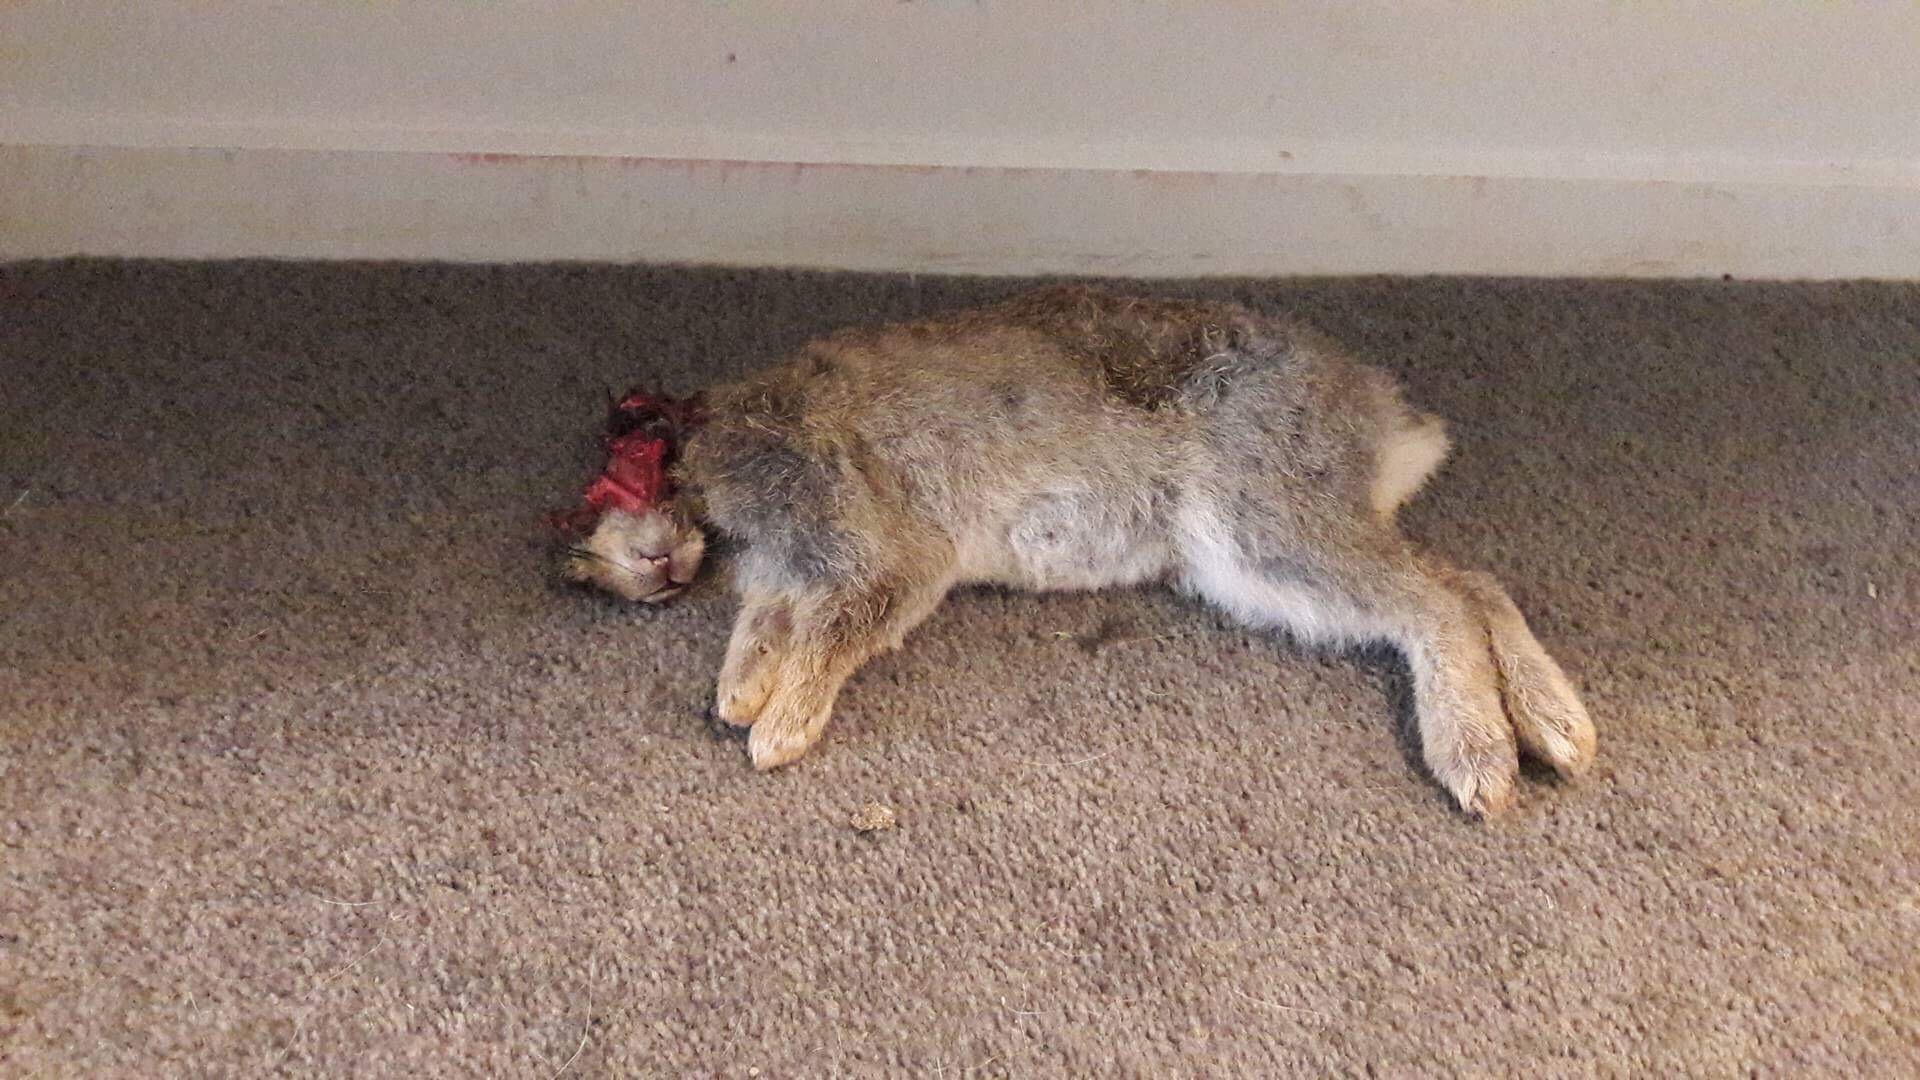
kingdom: Animalia
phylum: Chordata
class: Mammalia
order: Lagomorpha
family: Leporidae
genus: Oryctolagus
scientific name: Oryctolagus cuniculus
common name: European rabbit
